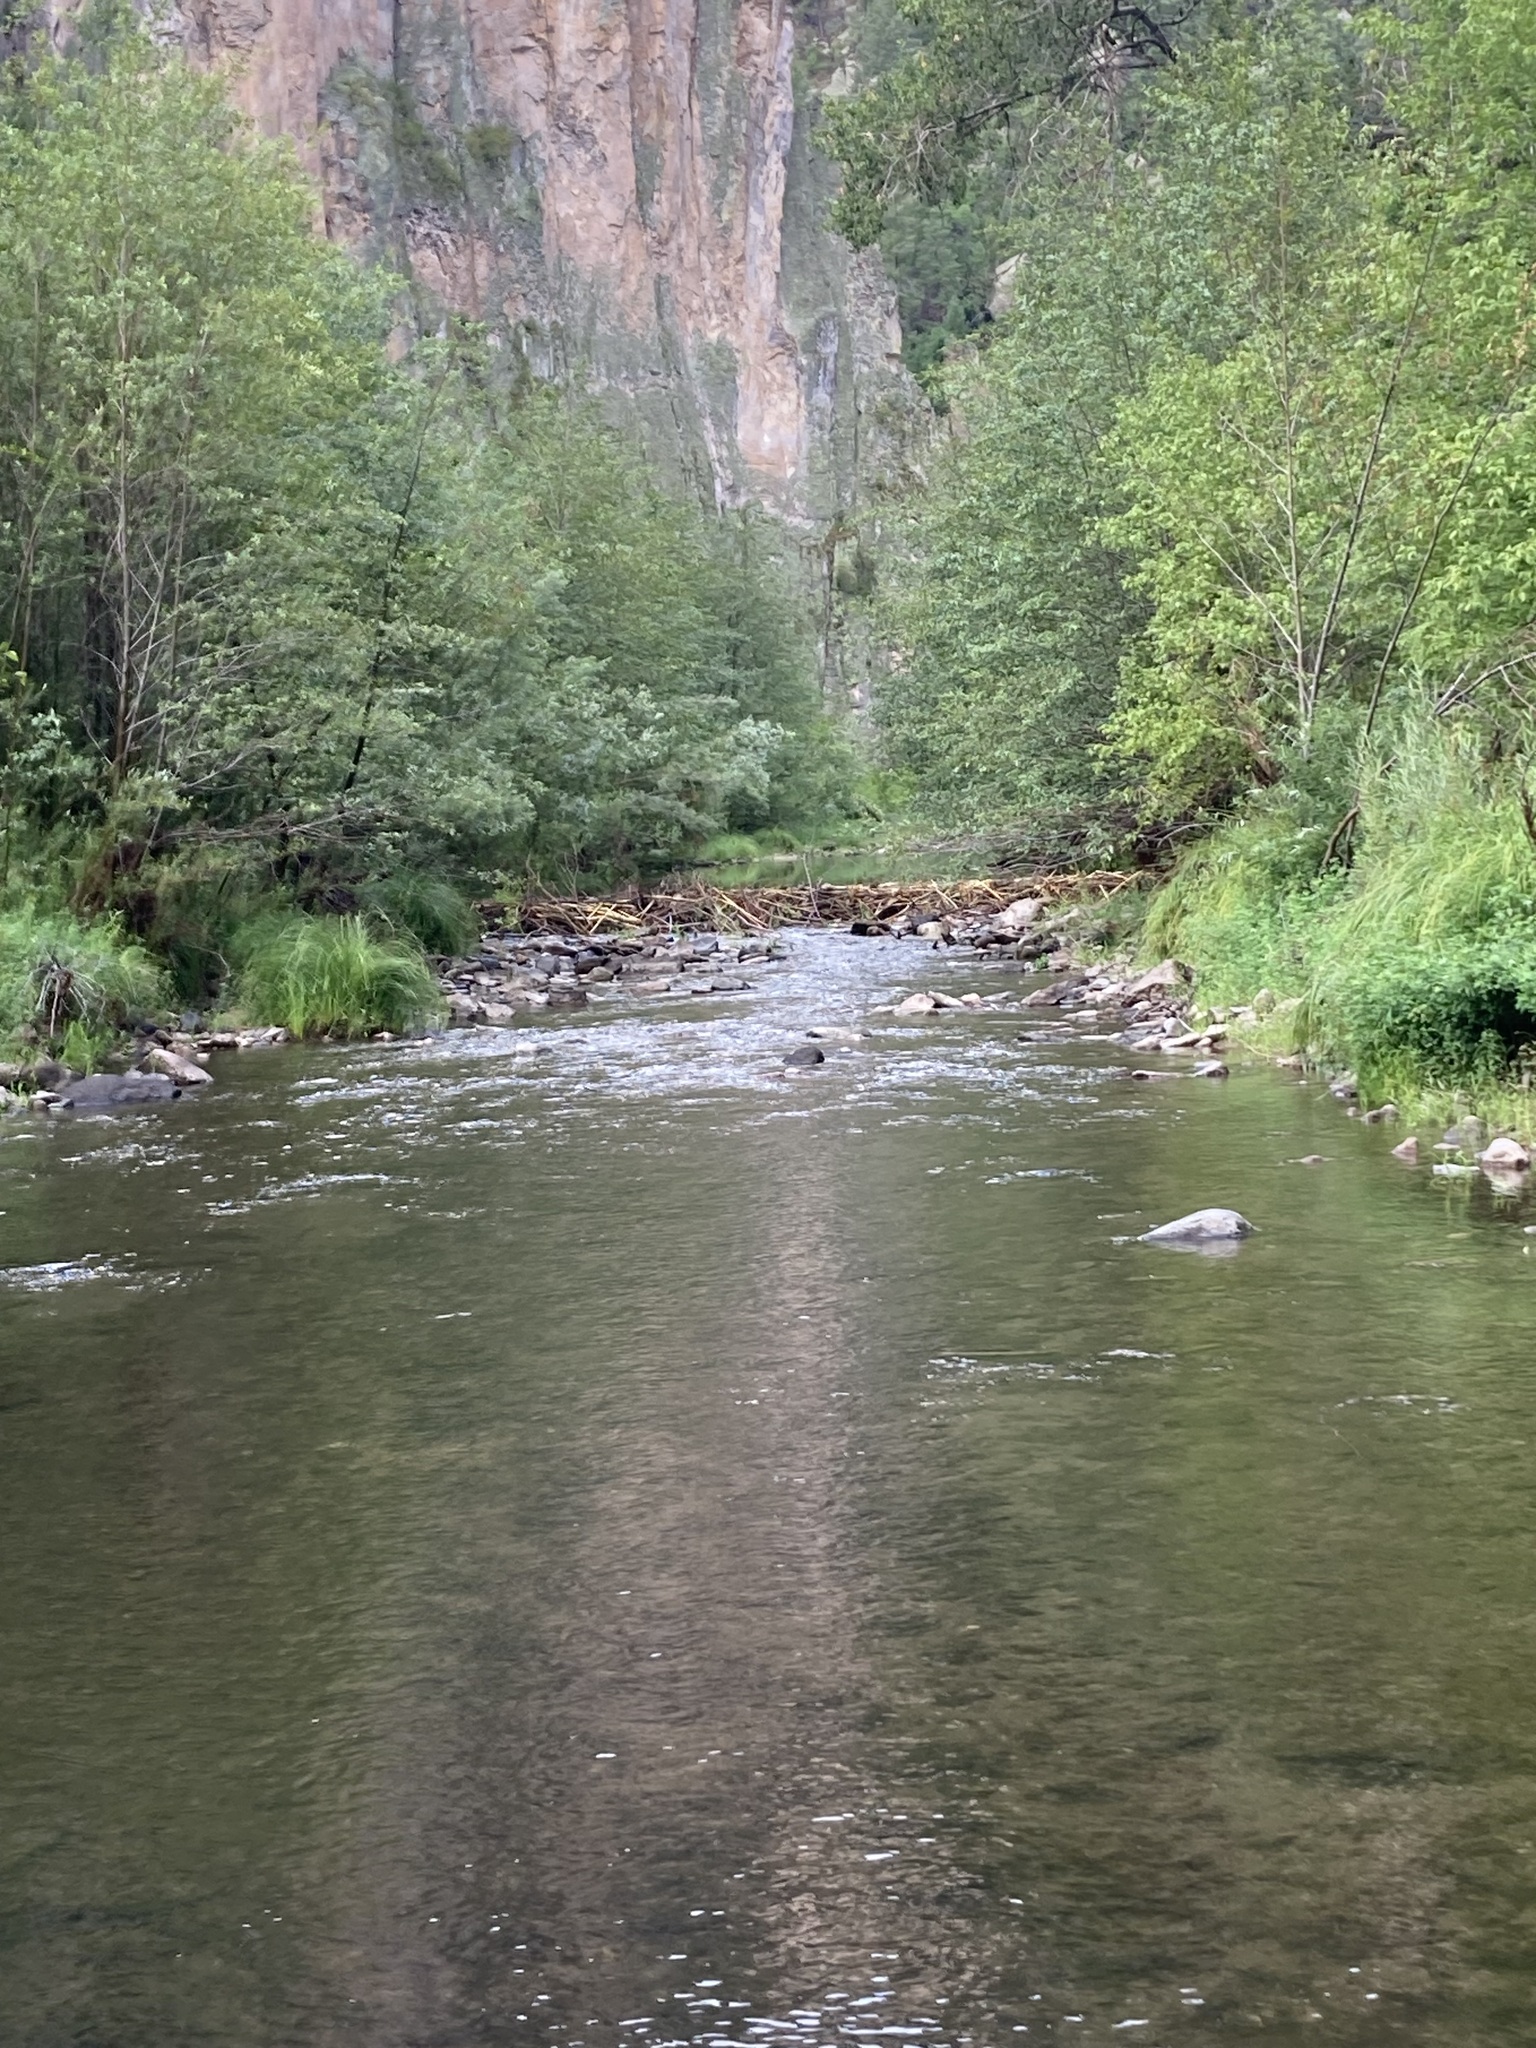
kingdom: Animalia
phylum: Chordata
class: Mammalia
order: Rodentia
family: Castoridae
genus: Castor
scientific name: Castor canadensis
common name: American beaver
